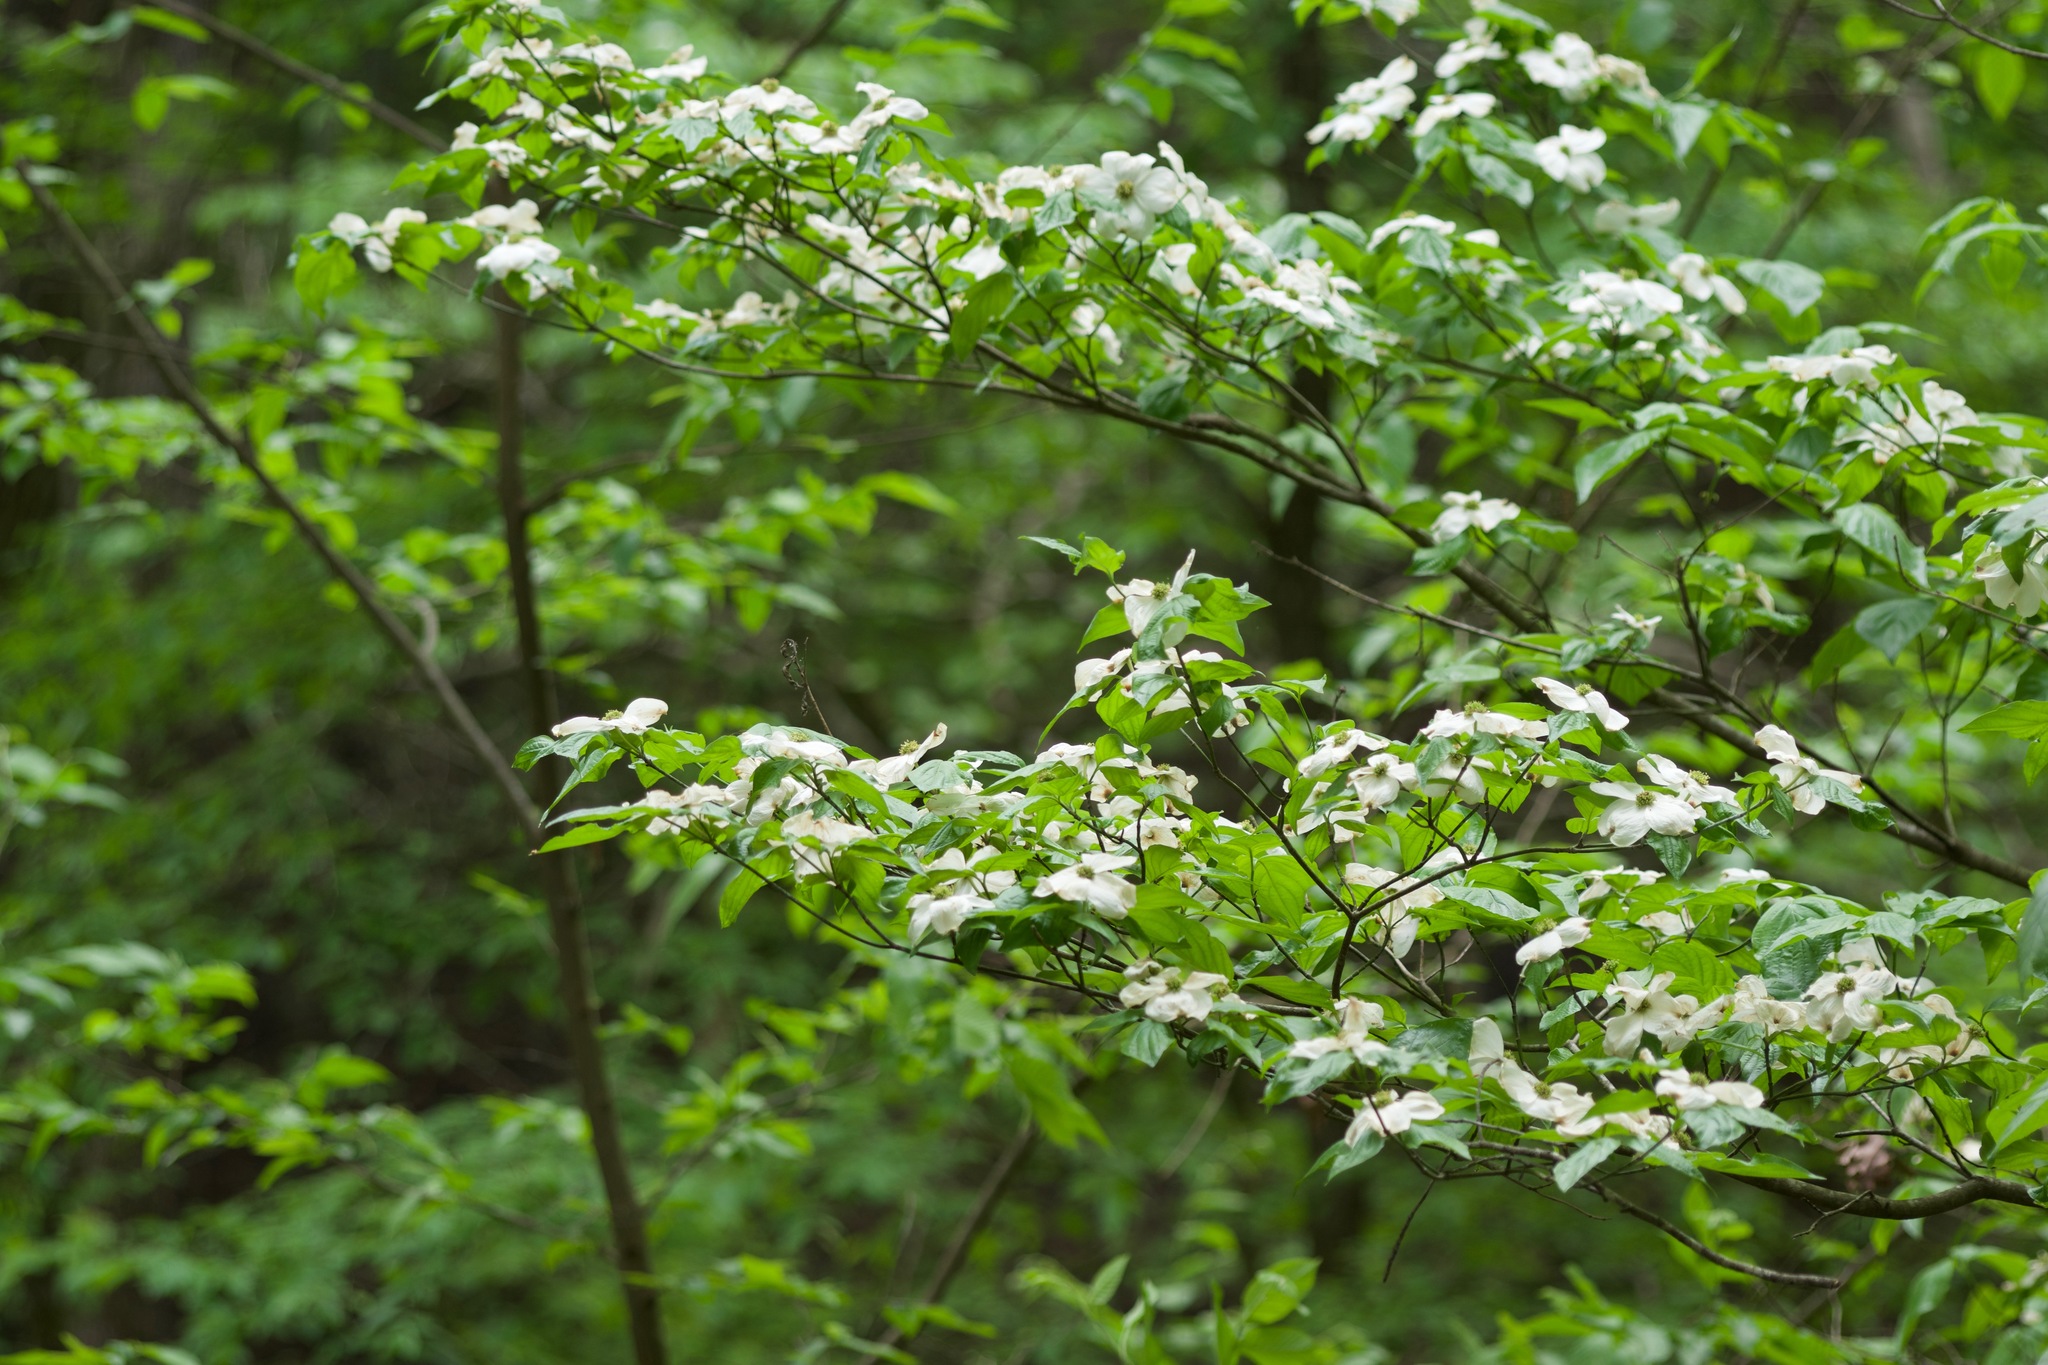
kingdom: Plantae
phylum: Tracheophyta
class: Magnoliopsida
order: Cornales
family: Cornaceae
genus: Cornus
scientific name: Cornus florida
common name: Flowering dogwood
